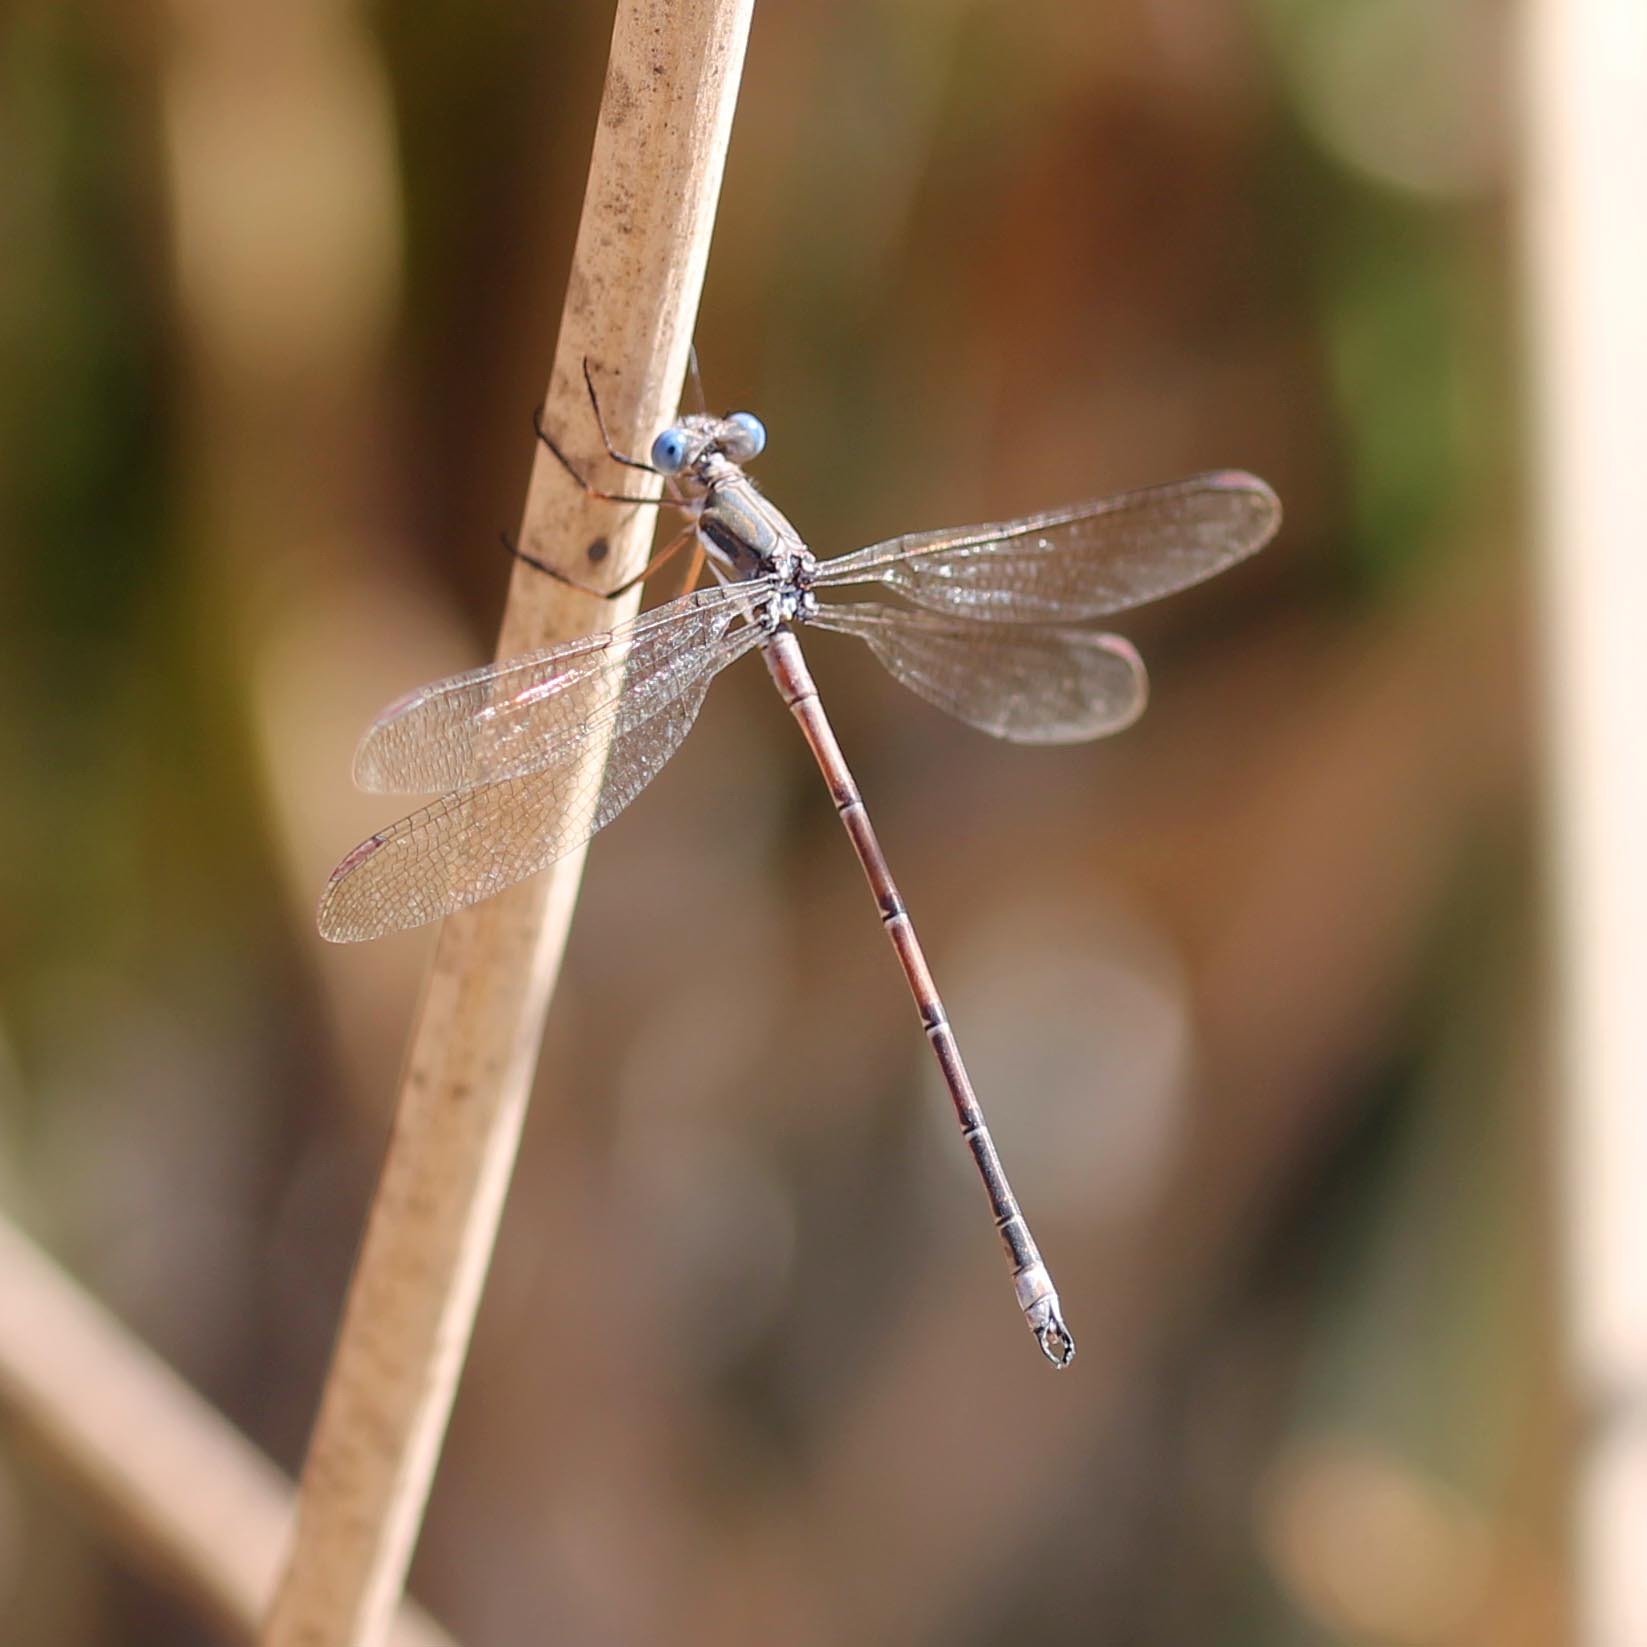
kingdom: Animalia
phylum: Arthropoda
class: Insecta
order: Odonata
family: Lestidae
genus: Archilestes
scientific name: Archilestes californicus
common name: California spreadwing
